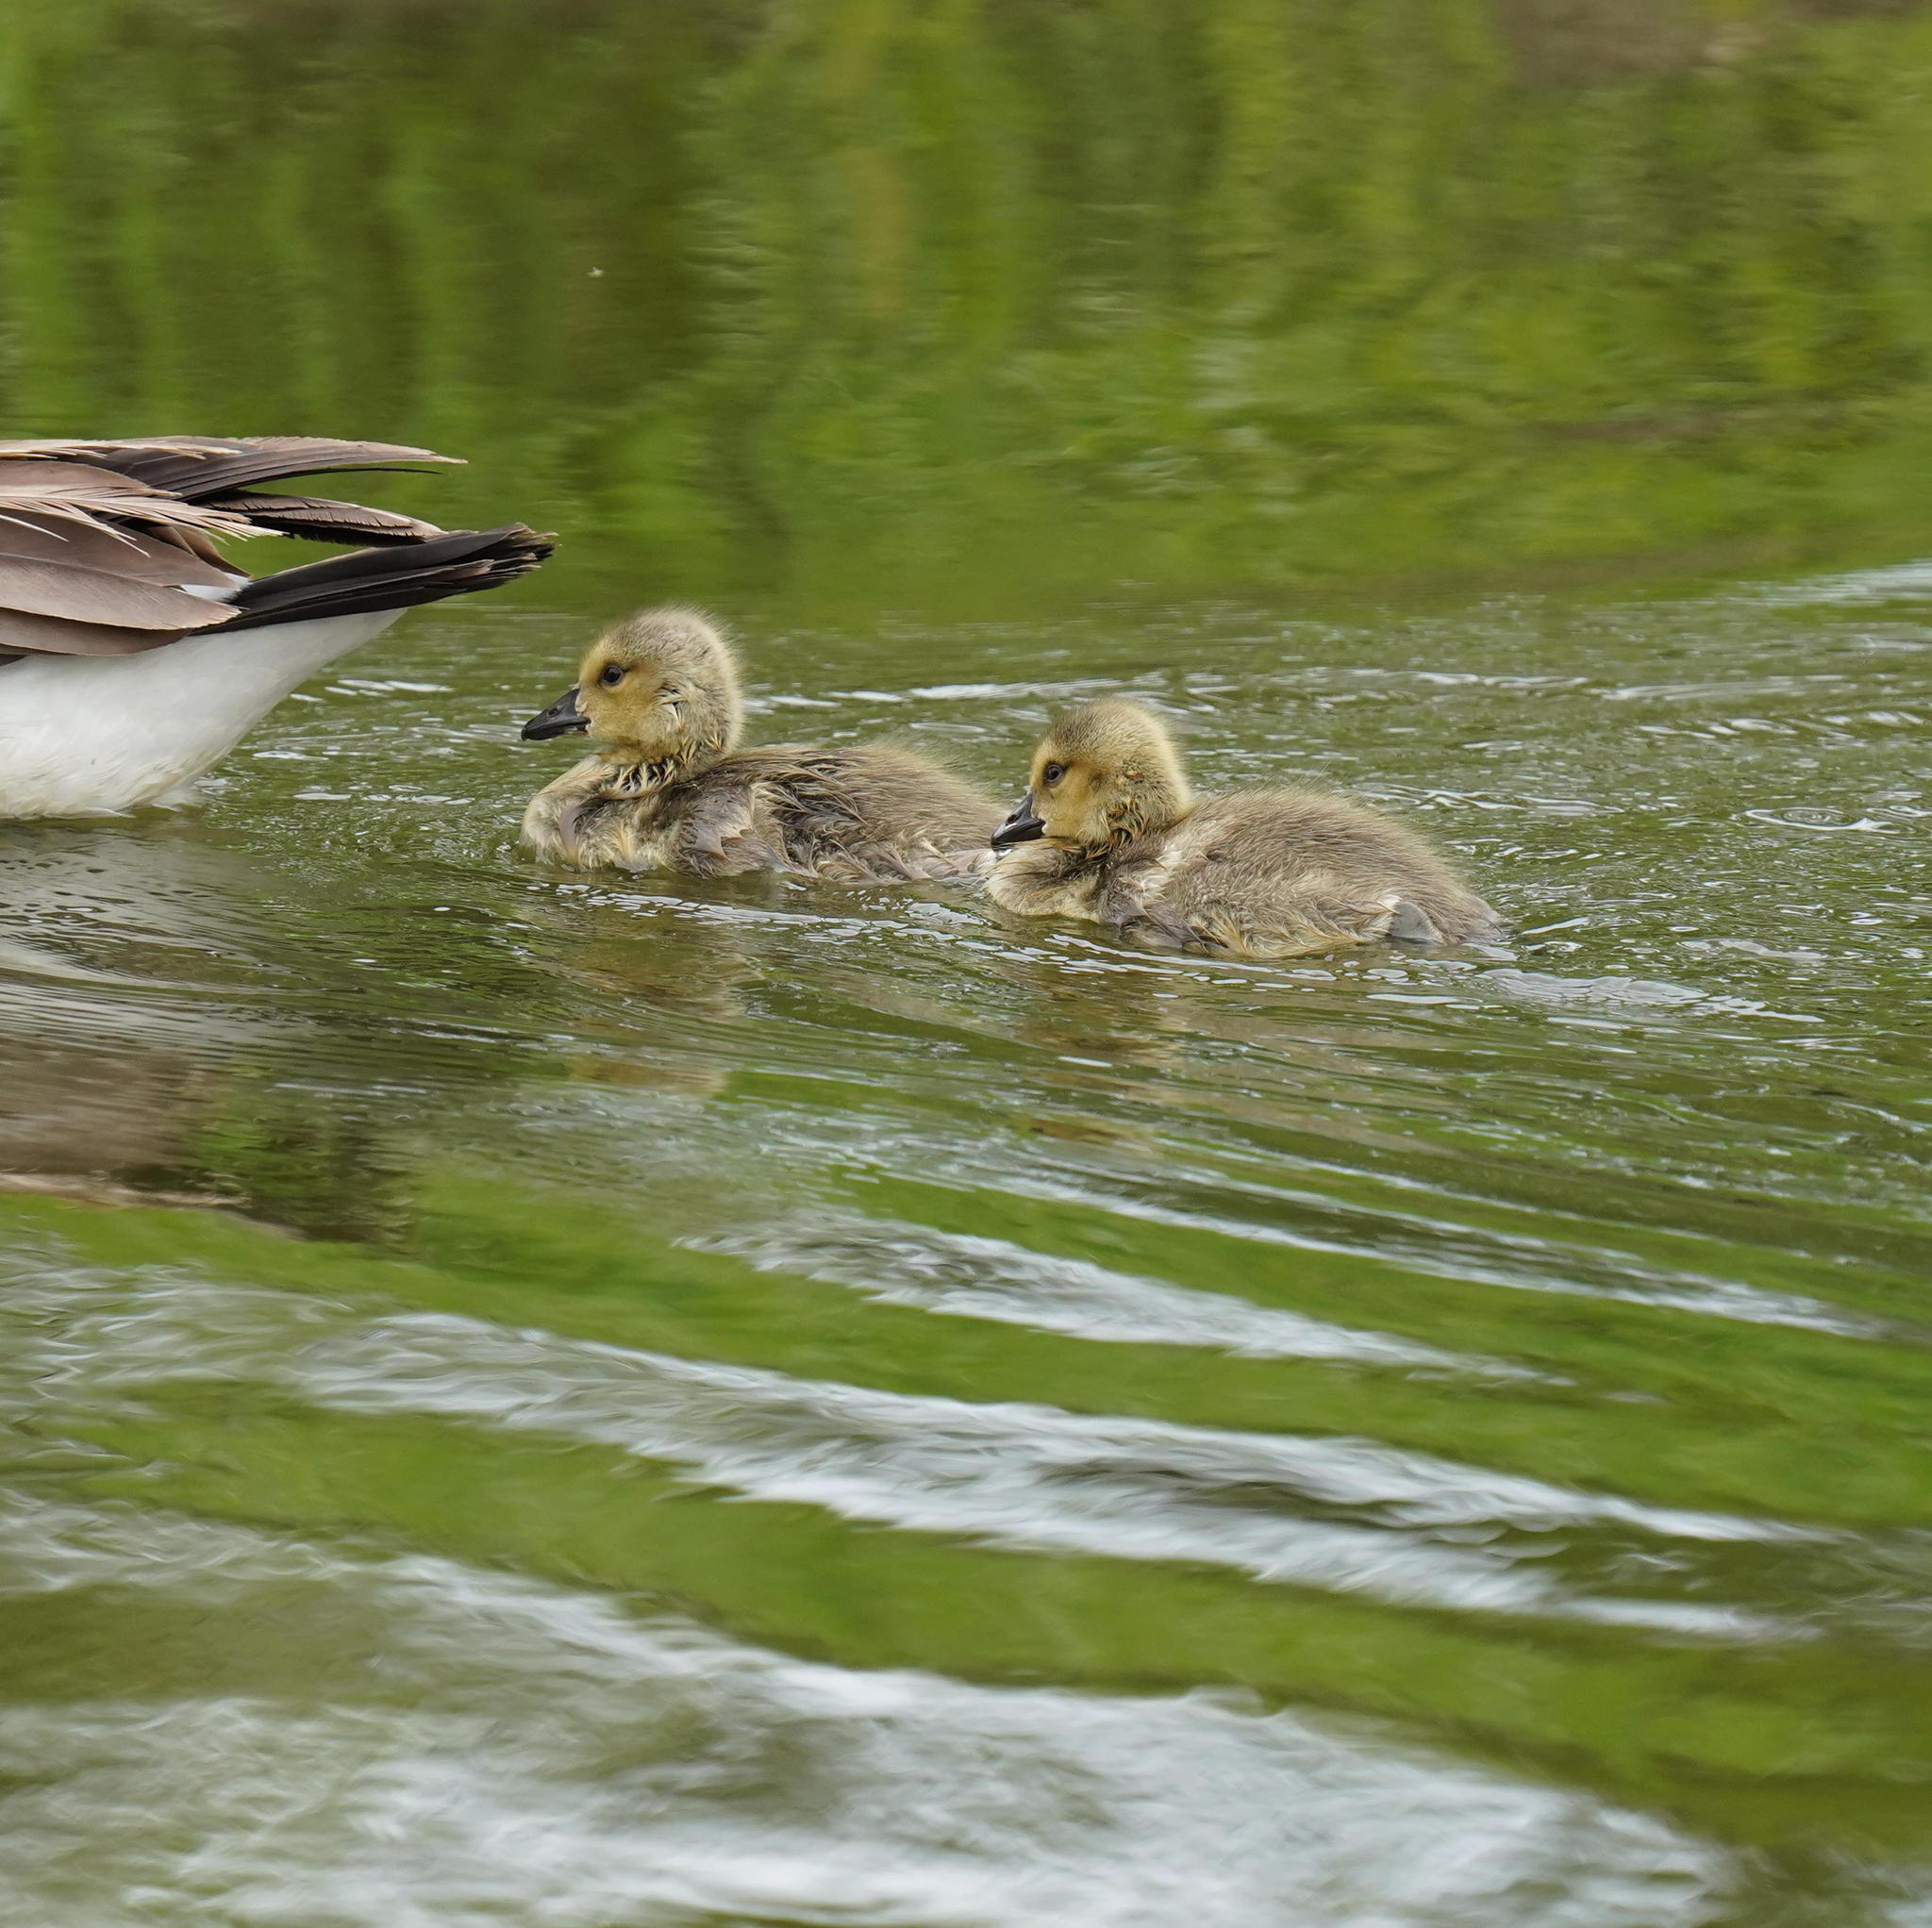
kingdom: Animalia
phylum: Chordata
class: Aves
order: Anseriformes
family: Anatidae
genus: Branta
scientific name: Branta canadensis
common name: Canada goose
